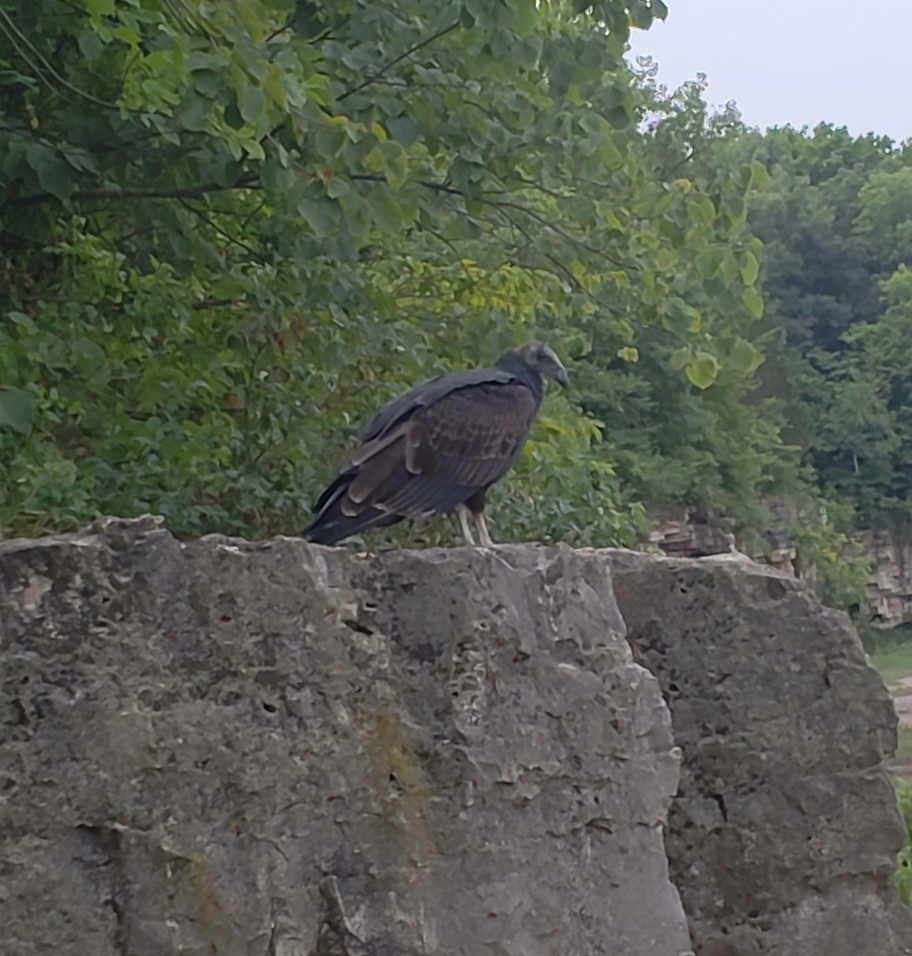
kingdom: Animalia
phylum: Chordata
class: Aves
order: Accipitriformes
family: Cathartidae
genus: Cathartes
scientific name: Cathartes aura
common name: Turkey vulture
